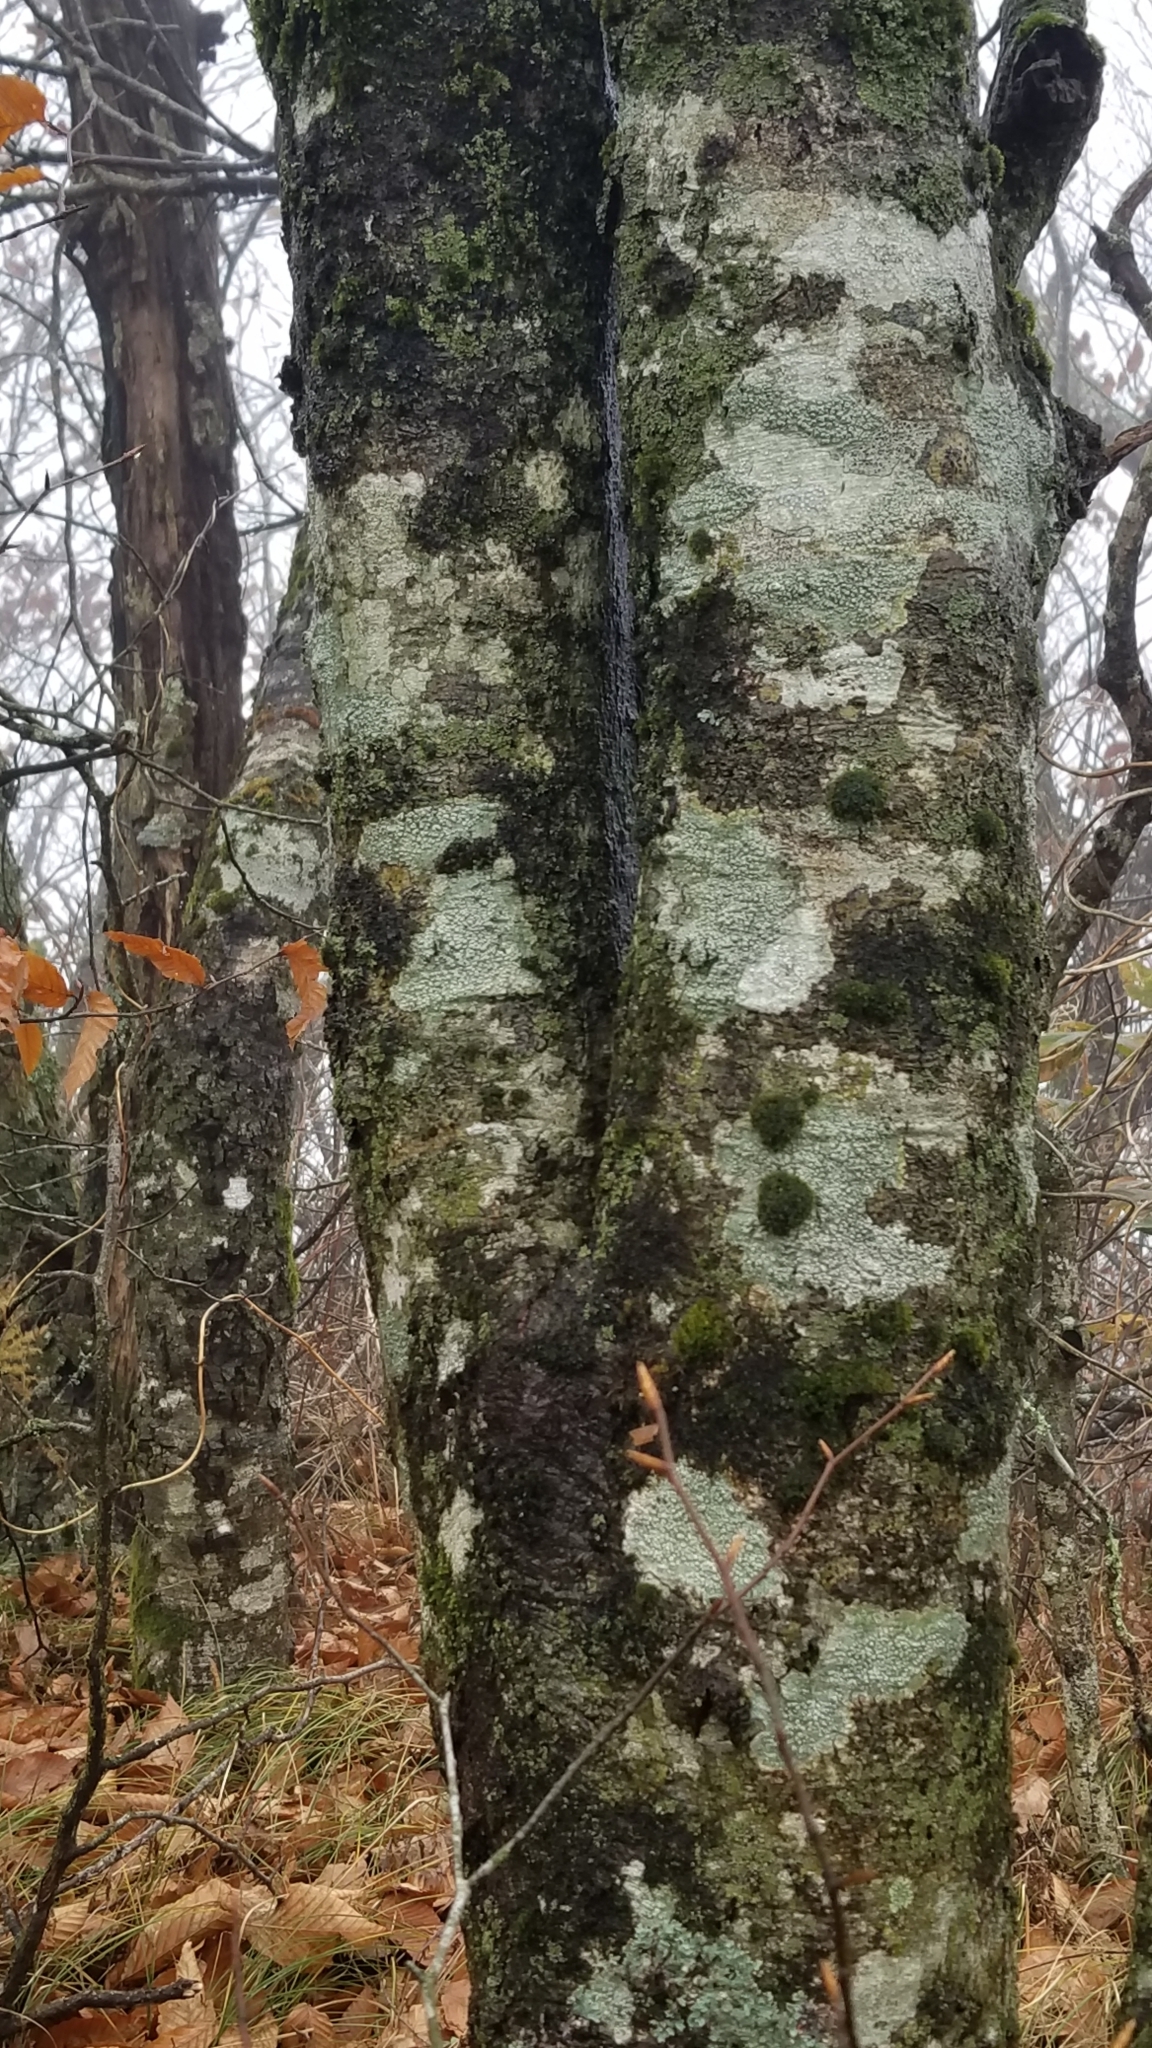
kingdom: Plantae
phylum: Tracheophyta
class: Magnoliopsida
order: Fagales
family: Fagaceae
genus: Fagus
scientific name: Fagus grandifolia
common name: American beech
